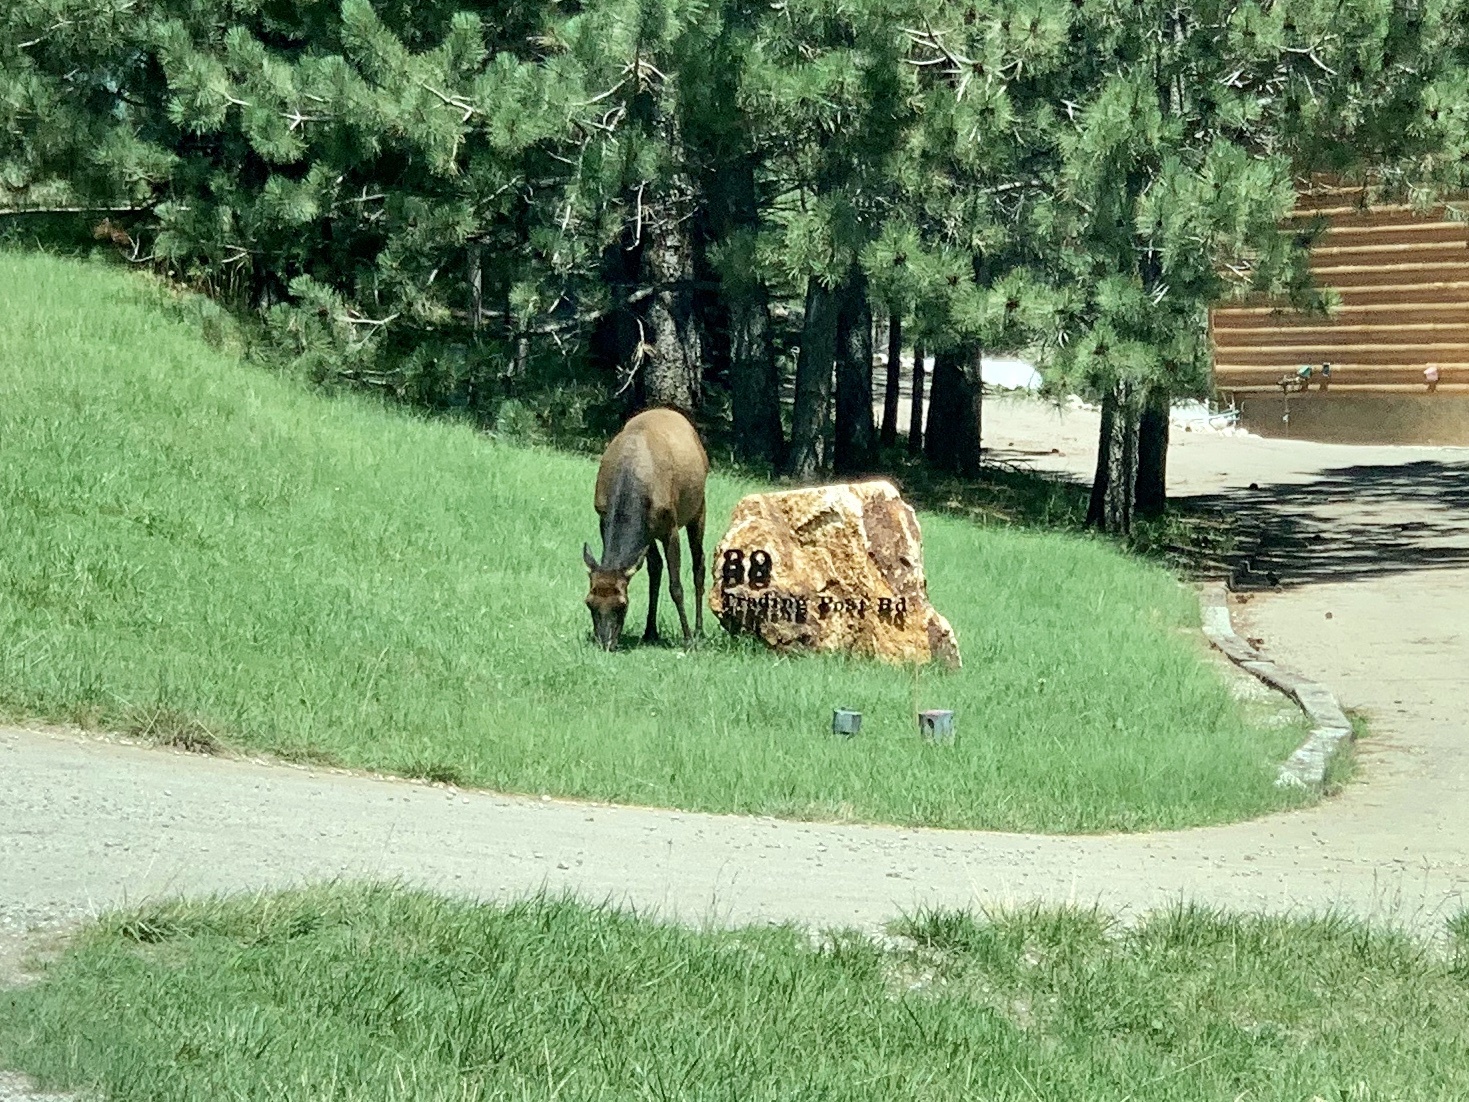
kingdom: Animalia
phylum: Chordata
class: Mammalia
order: Artiodactyla
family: Cervidae
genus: Cervus
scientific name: Cervus elaphus
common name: Red deer
